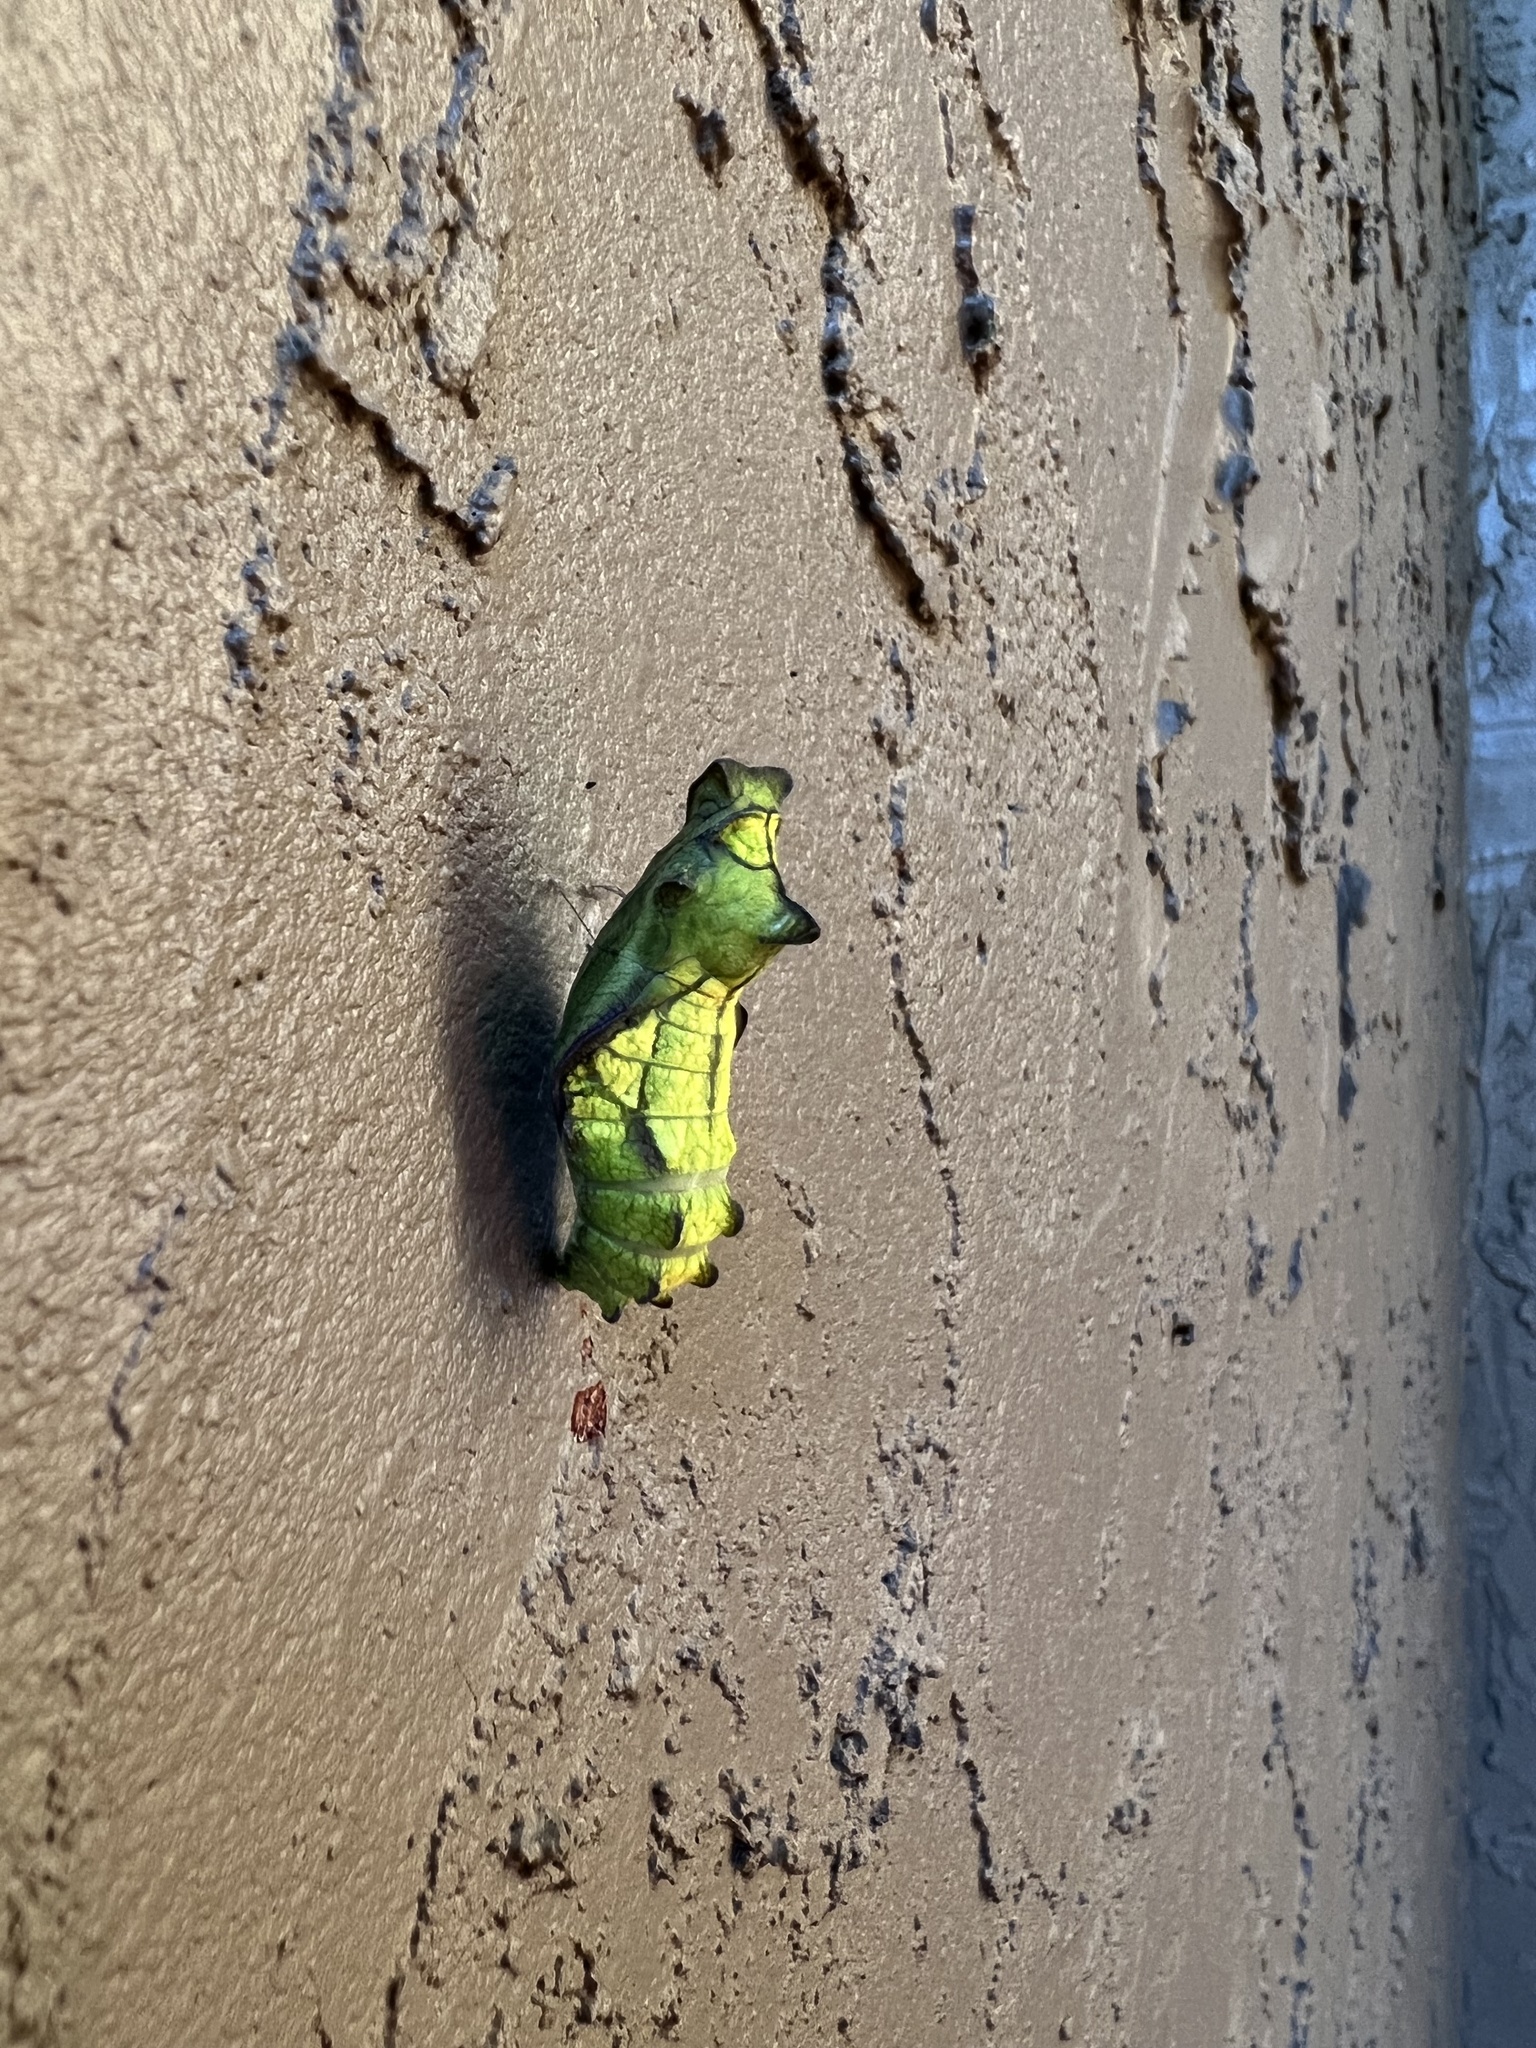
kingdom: Animalia
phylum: Arthropoda
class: Insecta
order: Lepidoptera
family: Papilionidae
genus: Battus
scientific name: Battus philenor
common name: Pipevine swallowtail
